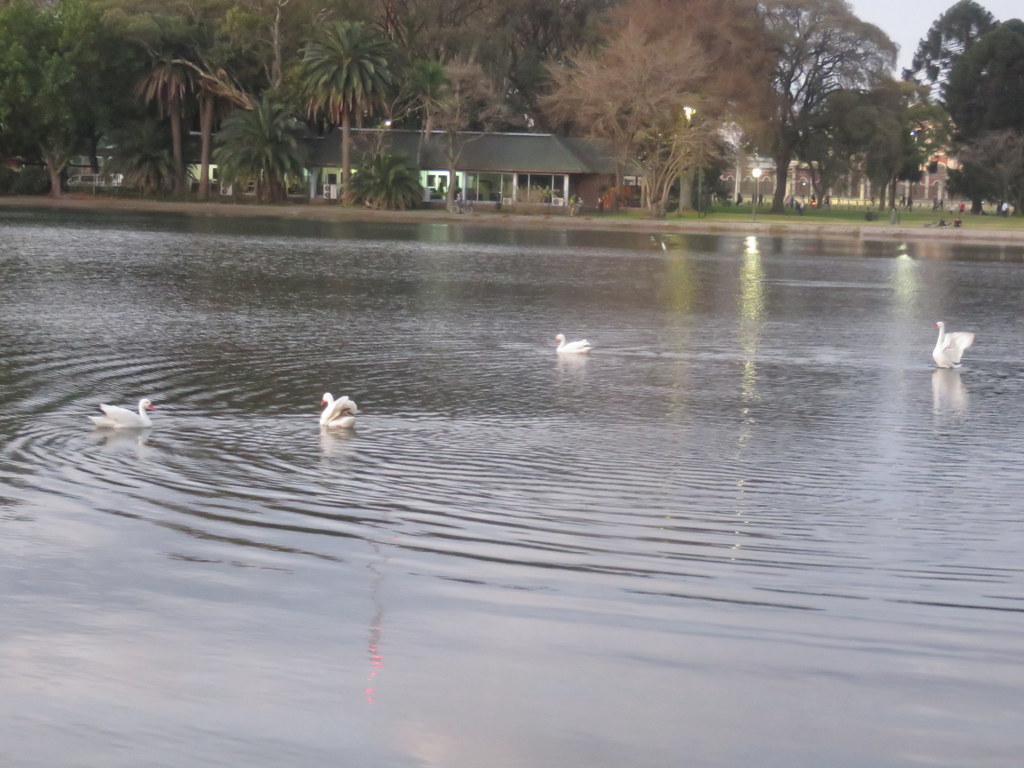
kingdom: Animalia
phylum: Chordata
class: Aves
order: Anseriformes
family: Anatidae
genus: Coscoroba
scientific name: Coscoroba coscoroba
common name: Coscoroba swan
